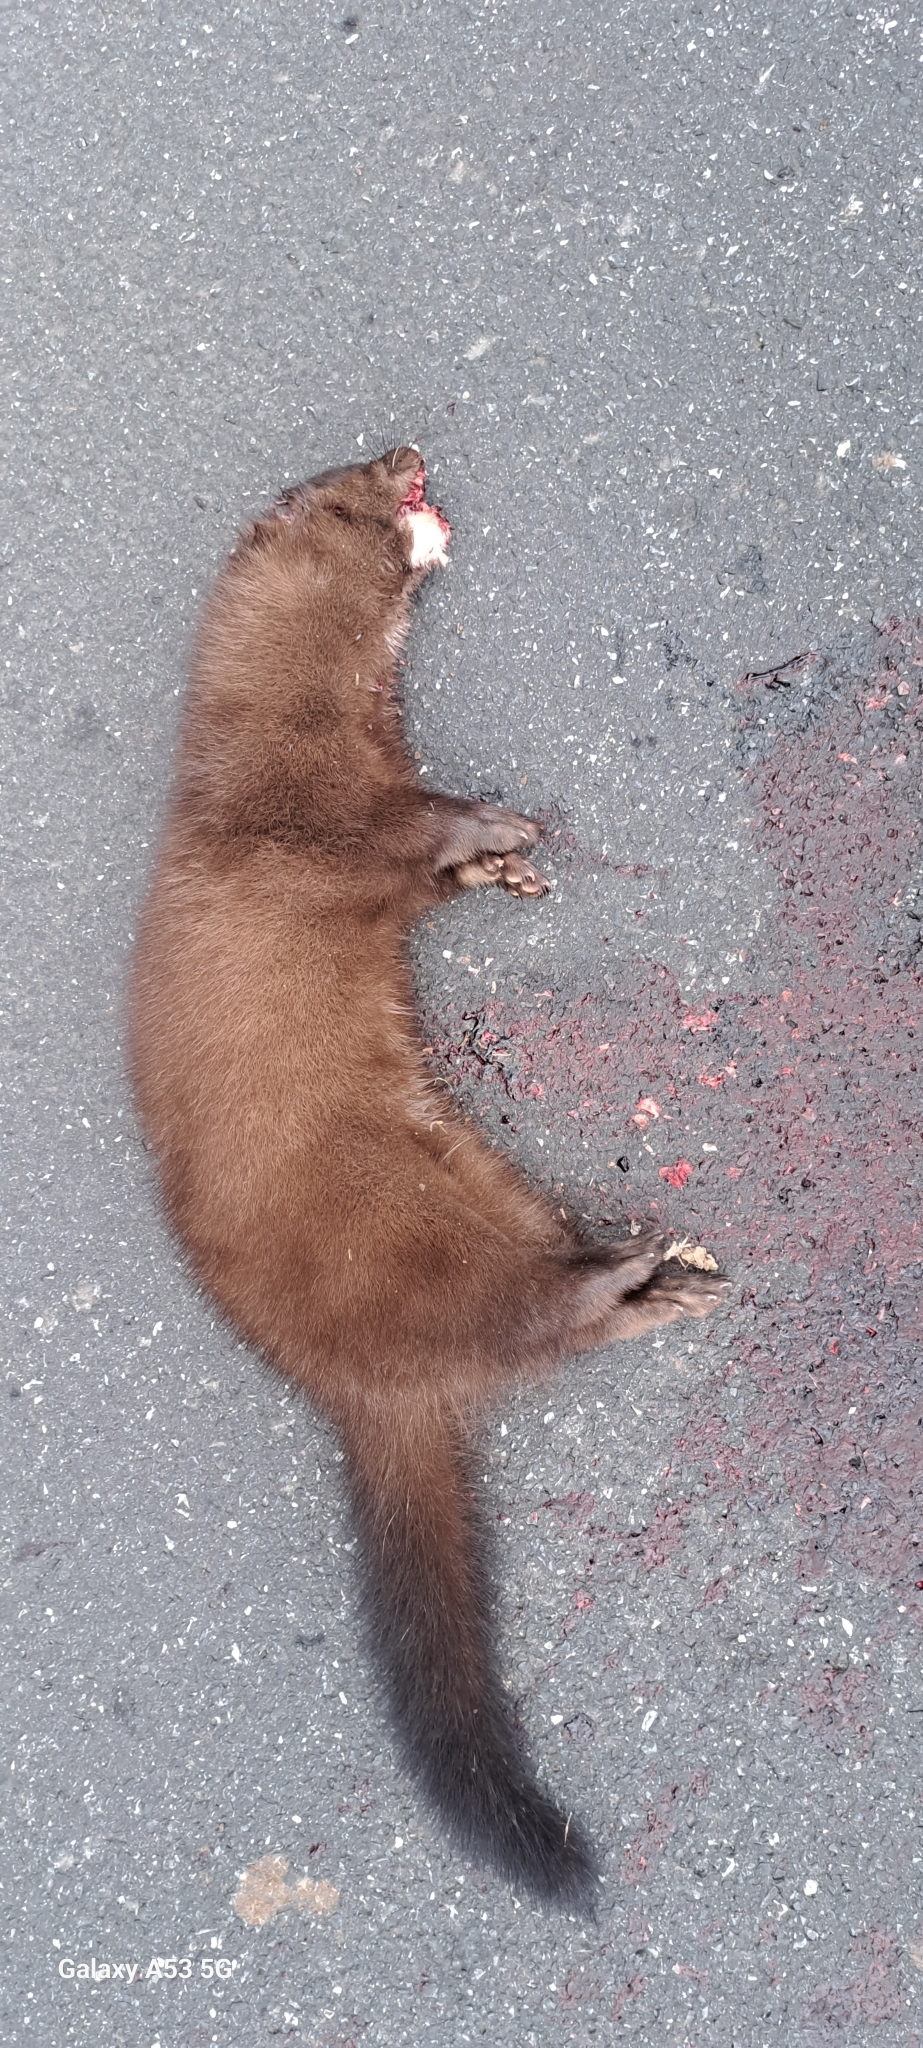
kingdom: Animalia
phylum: Chordata
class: Mammalia
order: Carnivora
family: Mustelidae
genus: Mustela
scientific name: Mustela
